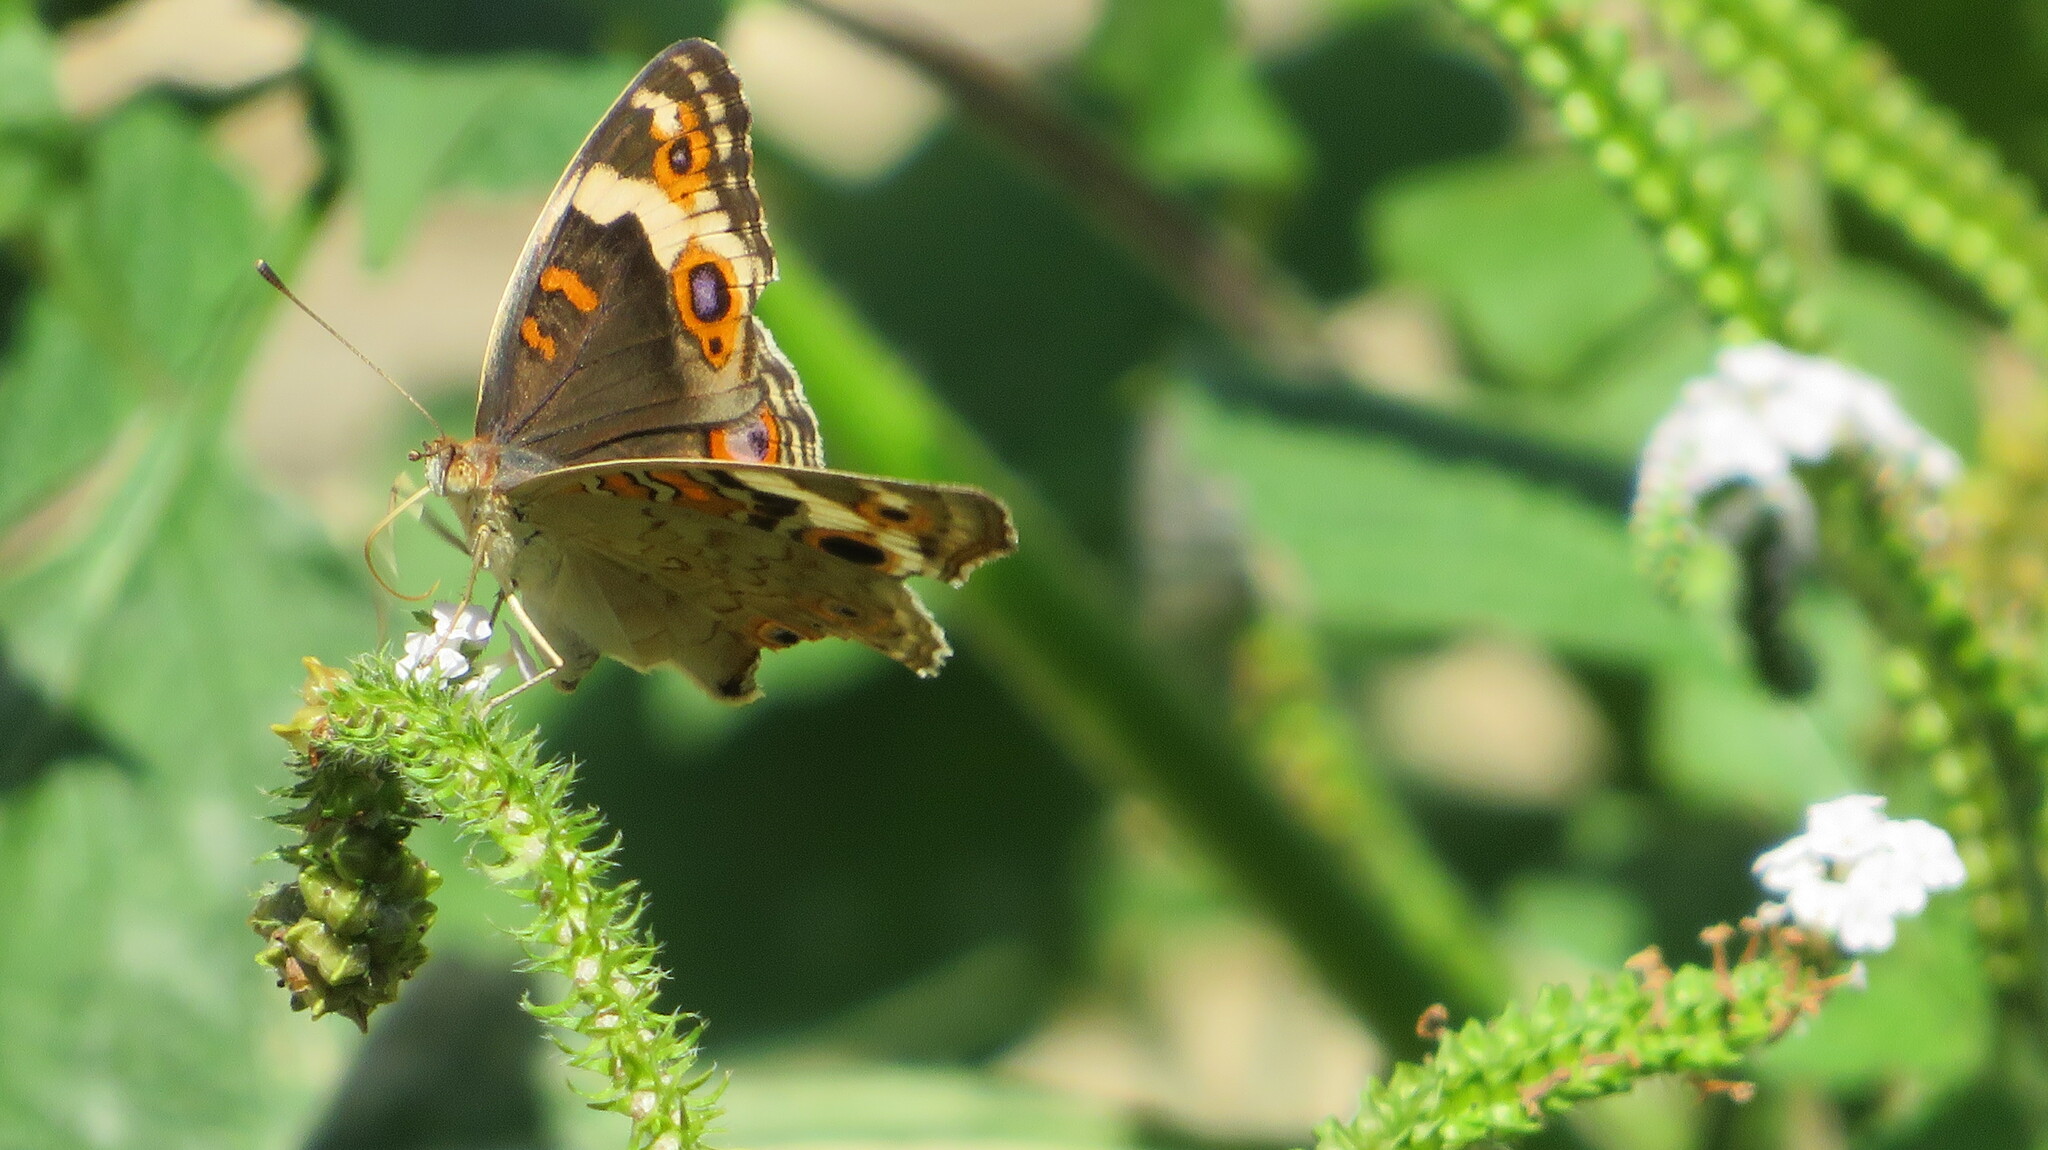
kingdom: Animalia
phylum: Arthropoda
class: Insecta
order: Lepidoptera
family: Nymphalidae
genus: Junonia
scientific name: Junonia orithya
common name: Blue pansy
